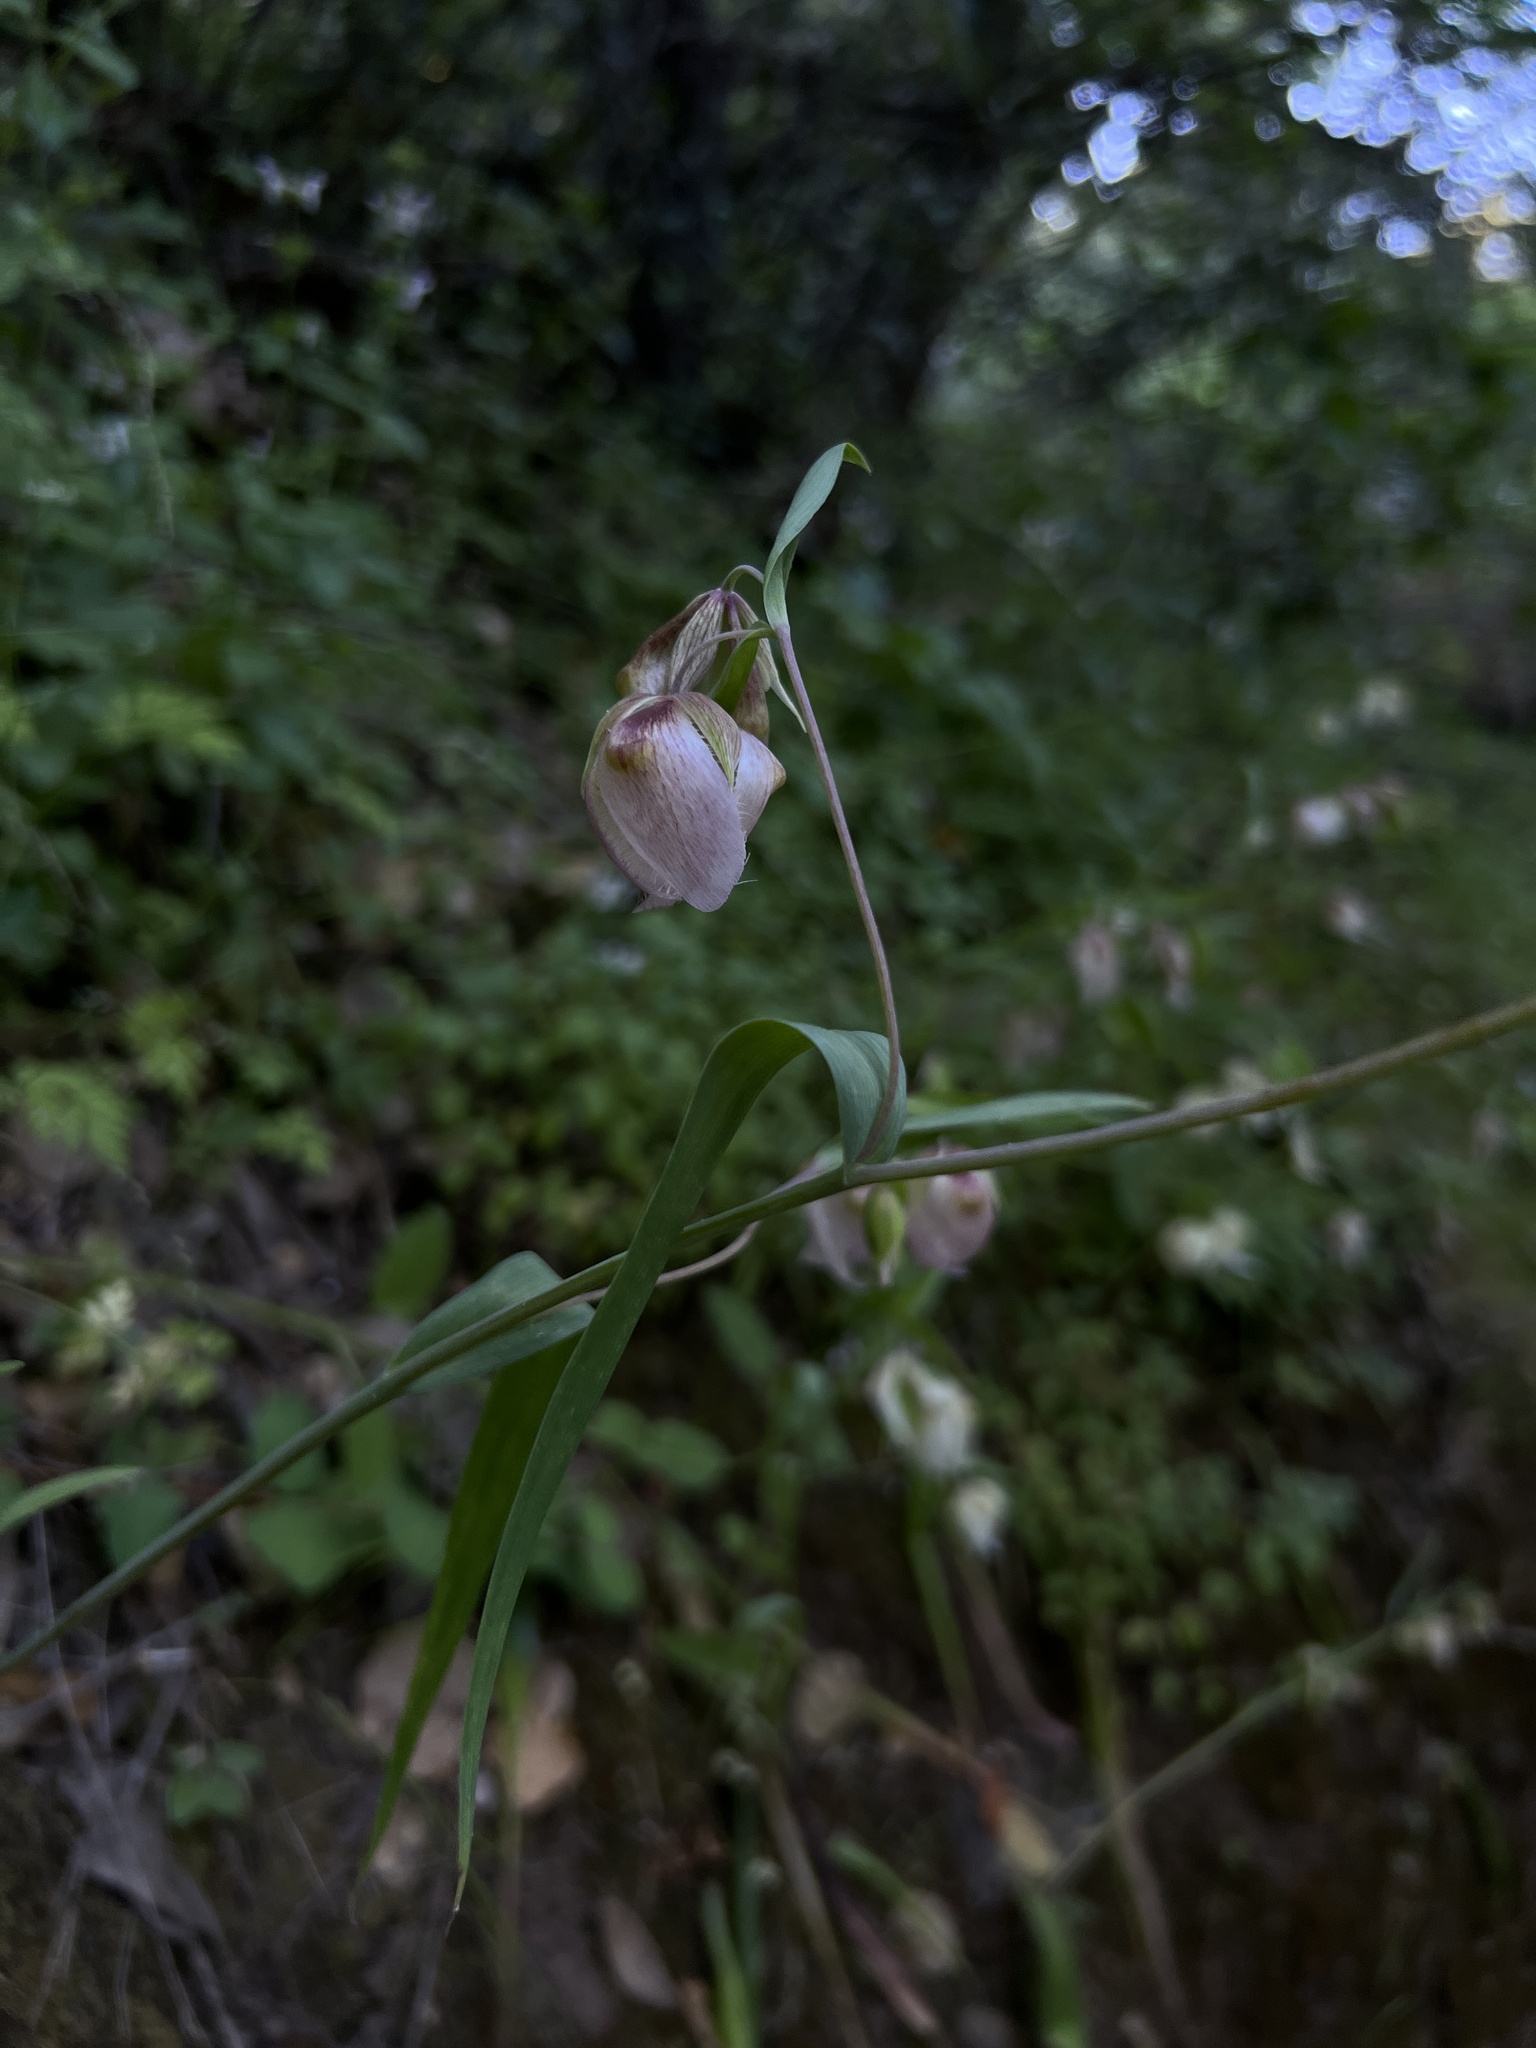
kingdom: Plantae
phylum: Tracheophyta
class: Liliopsida
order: Liliales
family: Liliaceae
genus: Calochortus
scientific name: Calochortus albus
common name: Fairy-lantern
